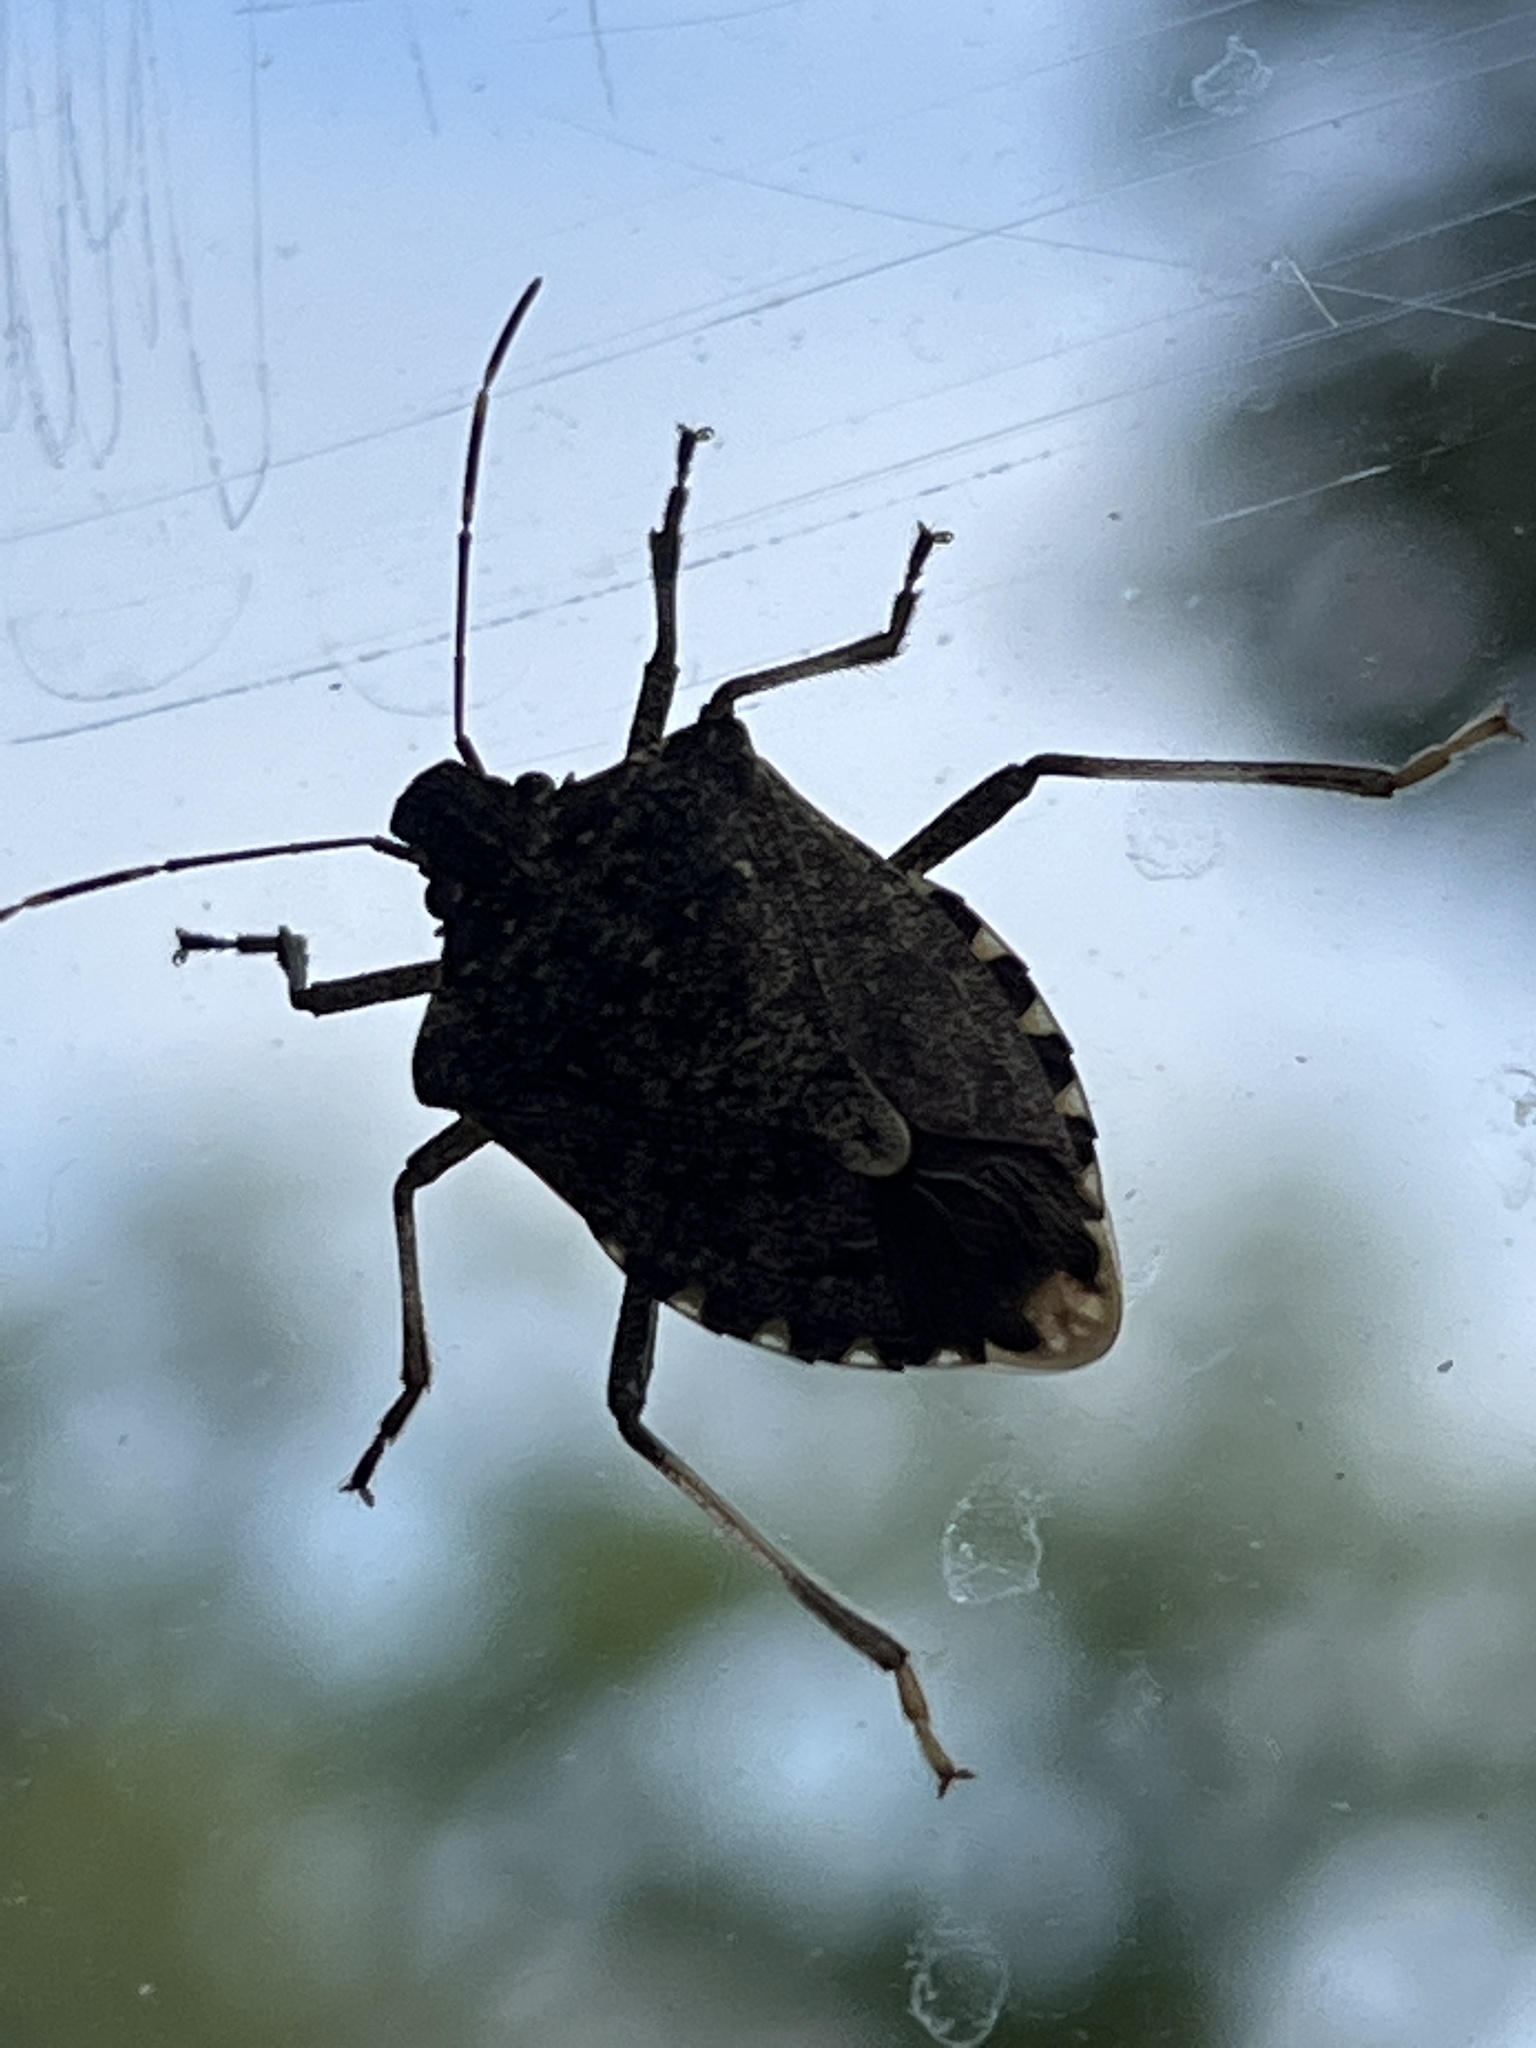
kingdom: Animalia
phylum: Arthropoda
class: Insecta
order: Hemiptera
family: Pentatomidae
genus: Halyomorpha
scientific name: Halyomorpha halys
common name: Brown marmorated stink bug
